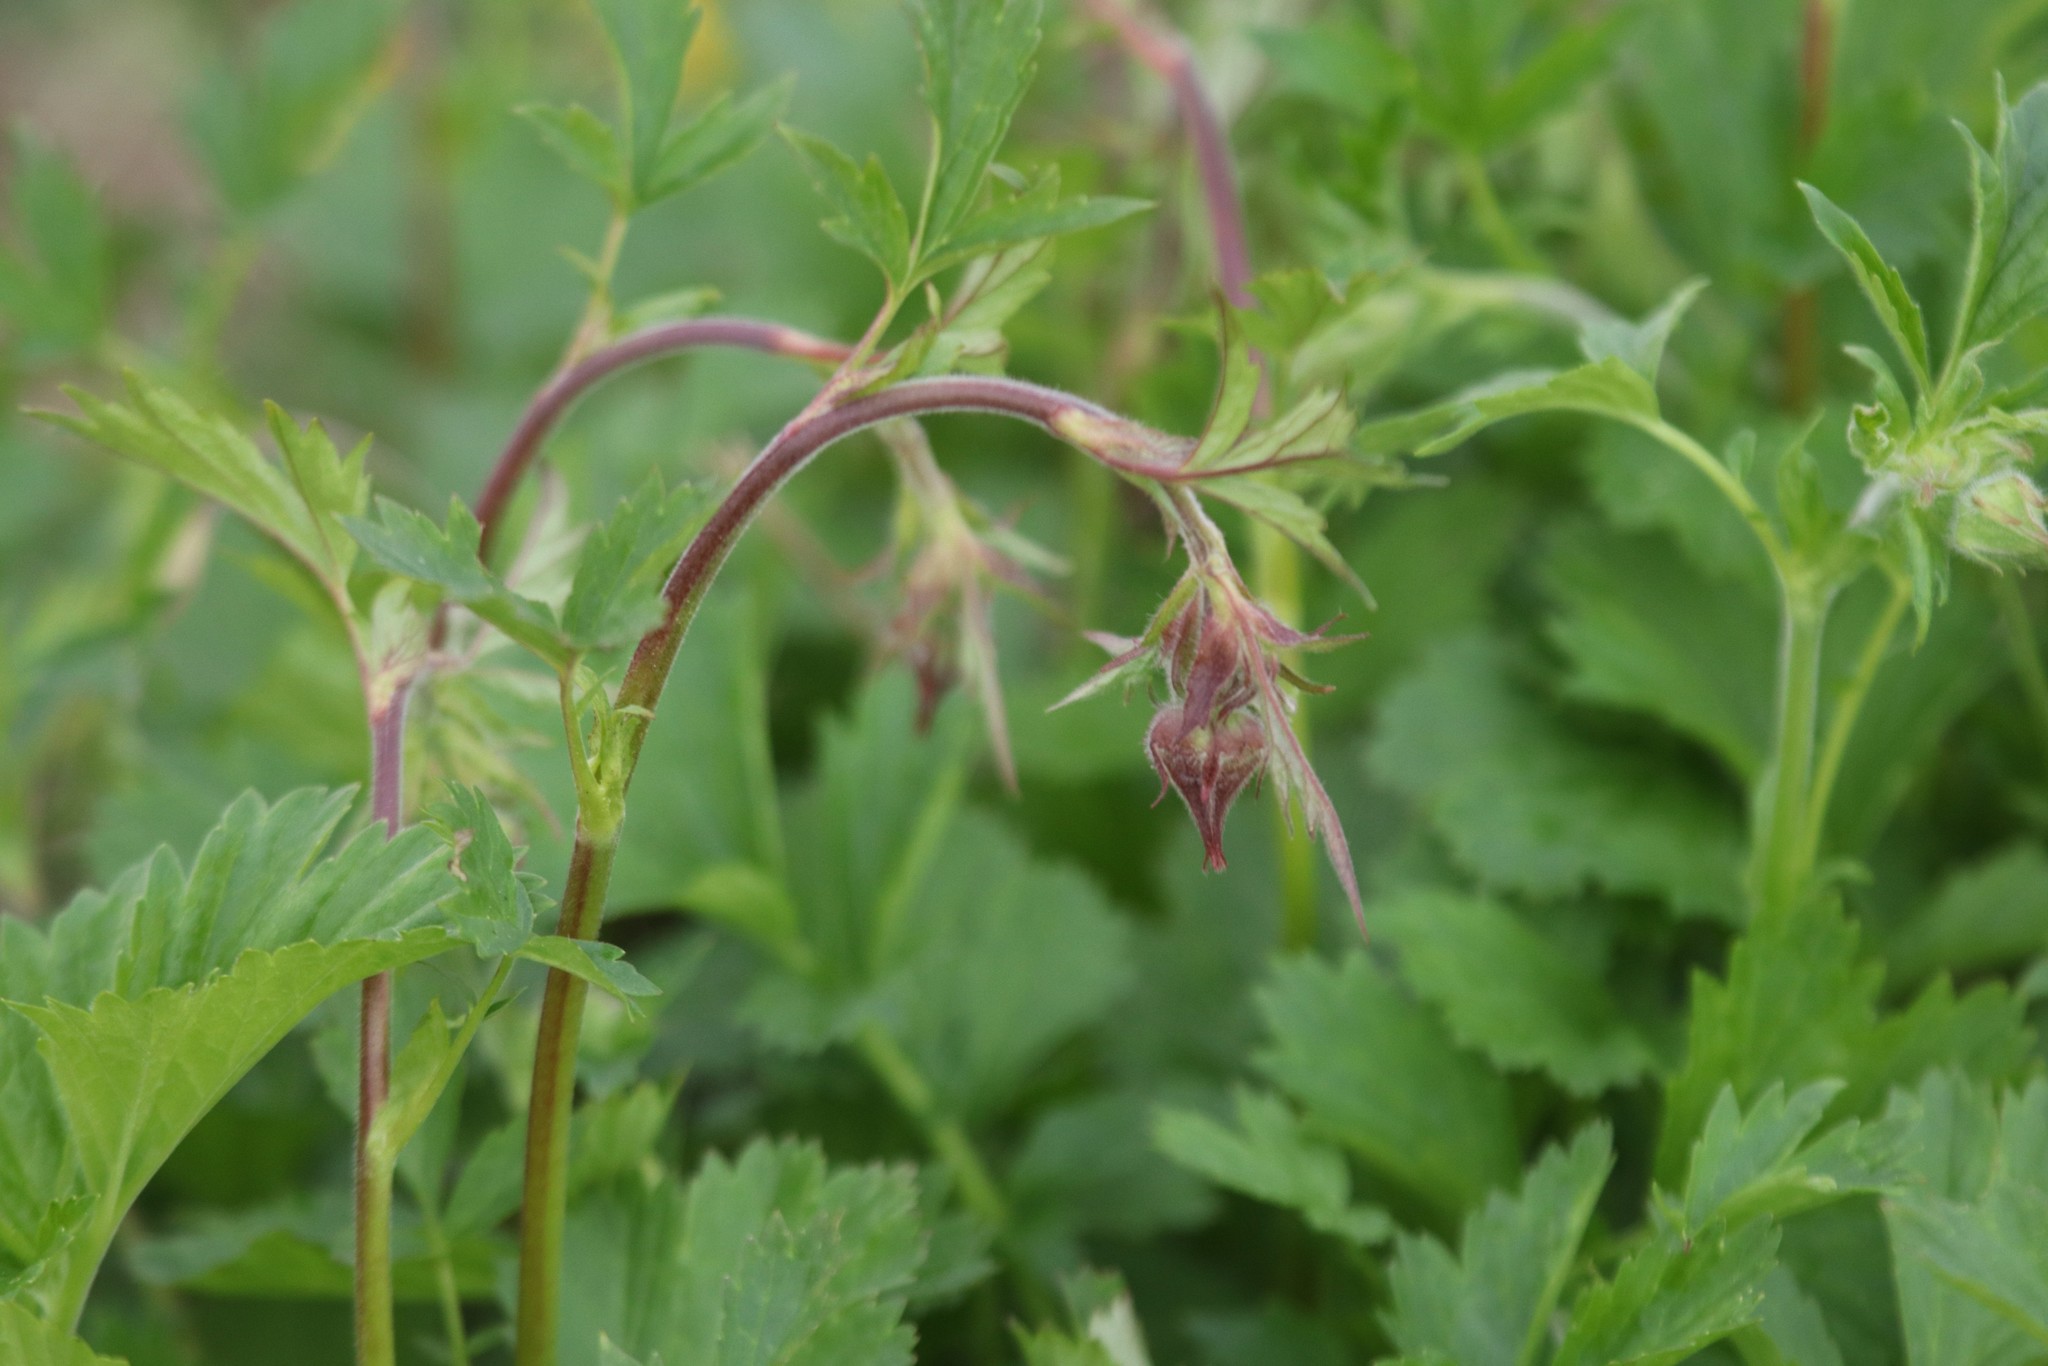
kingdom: Plantae
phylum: Tracheophyta
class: Magnoliopsida
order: Rosales
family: Rosaceae
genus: Geum
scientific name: Geum rivale
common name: Water avens
